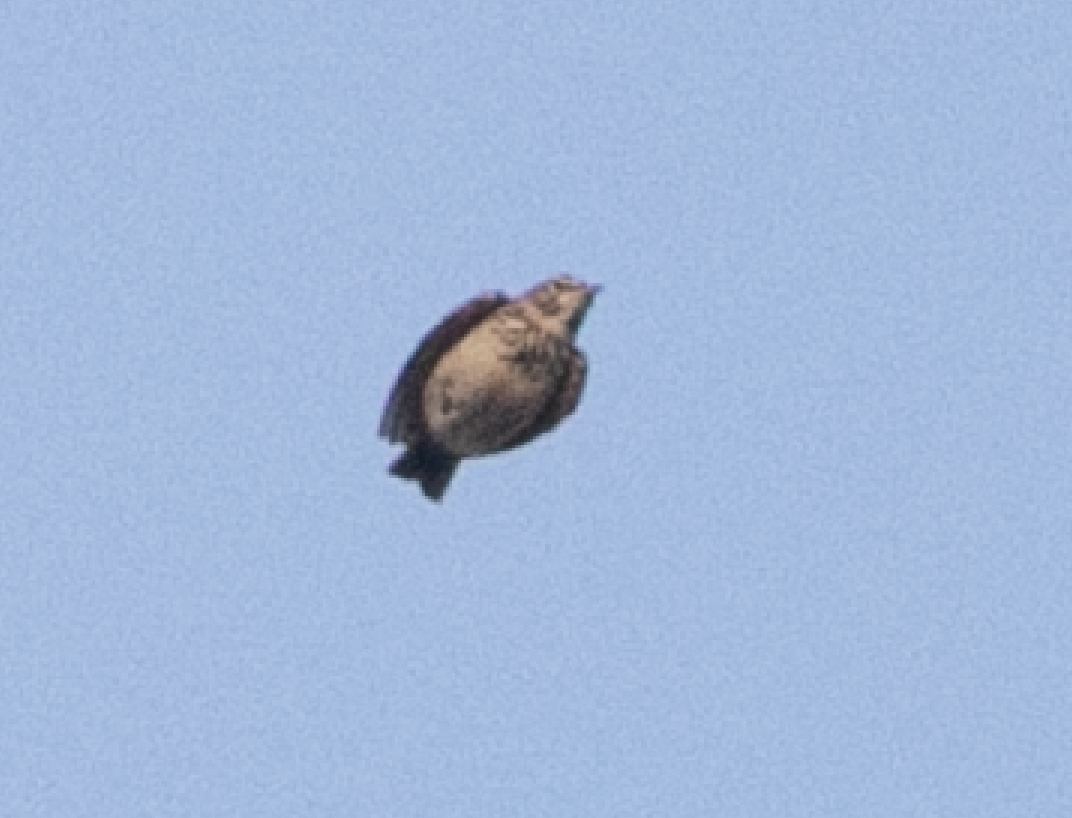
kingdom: Animalia
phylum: Chordata
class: Aves
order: Passeriformes
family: Alaudidae
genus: Galerida
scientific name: Galerida cristata
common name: Crested lark
